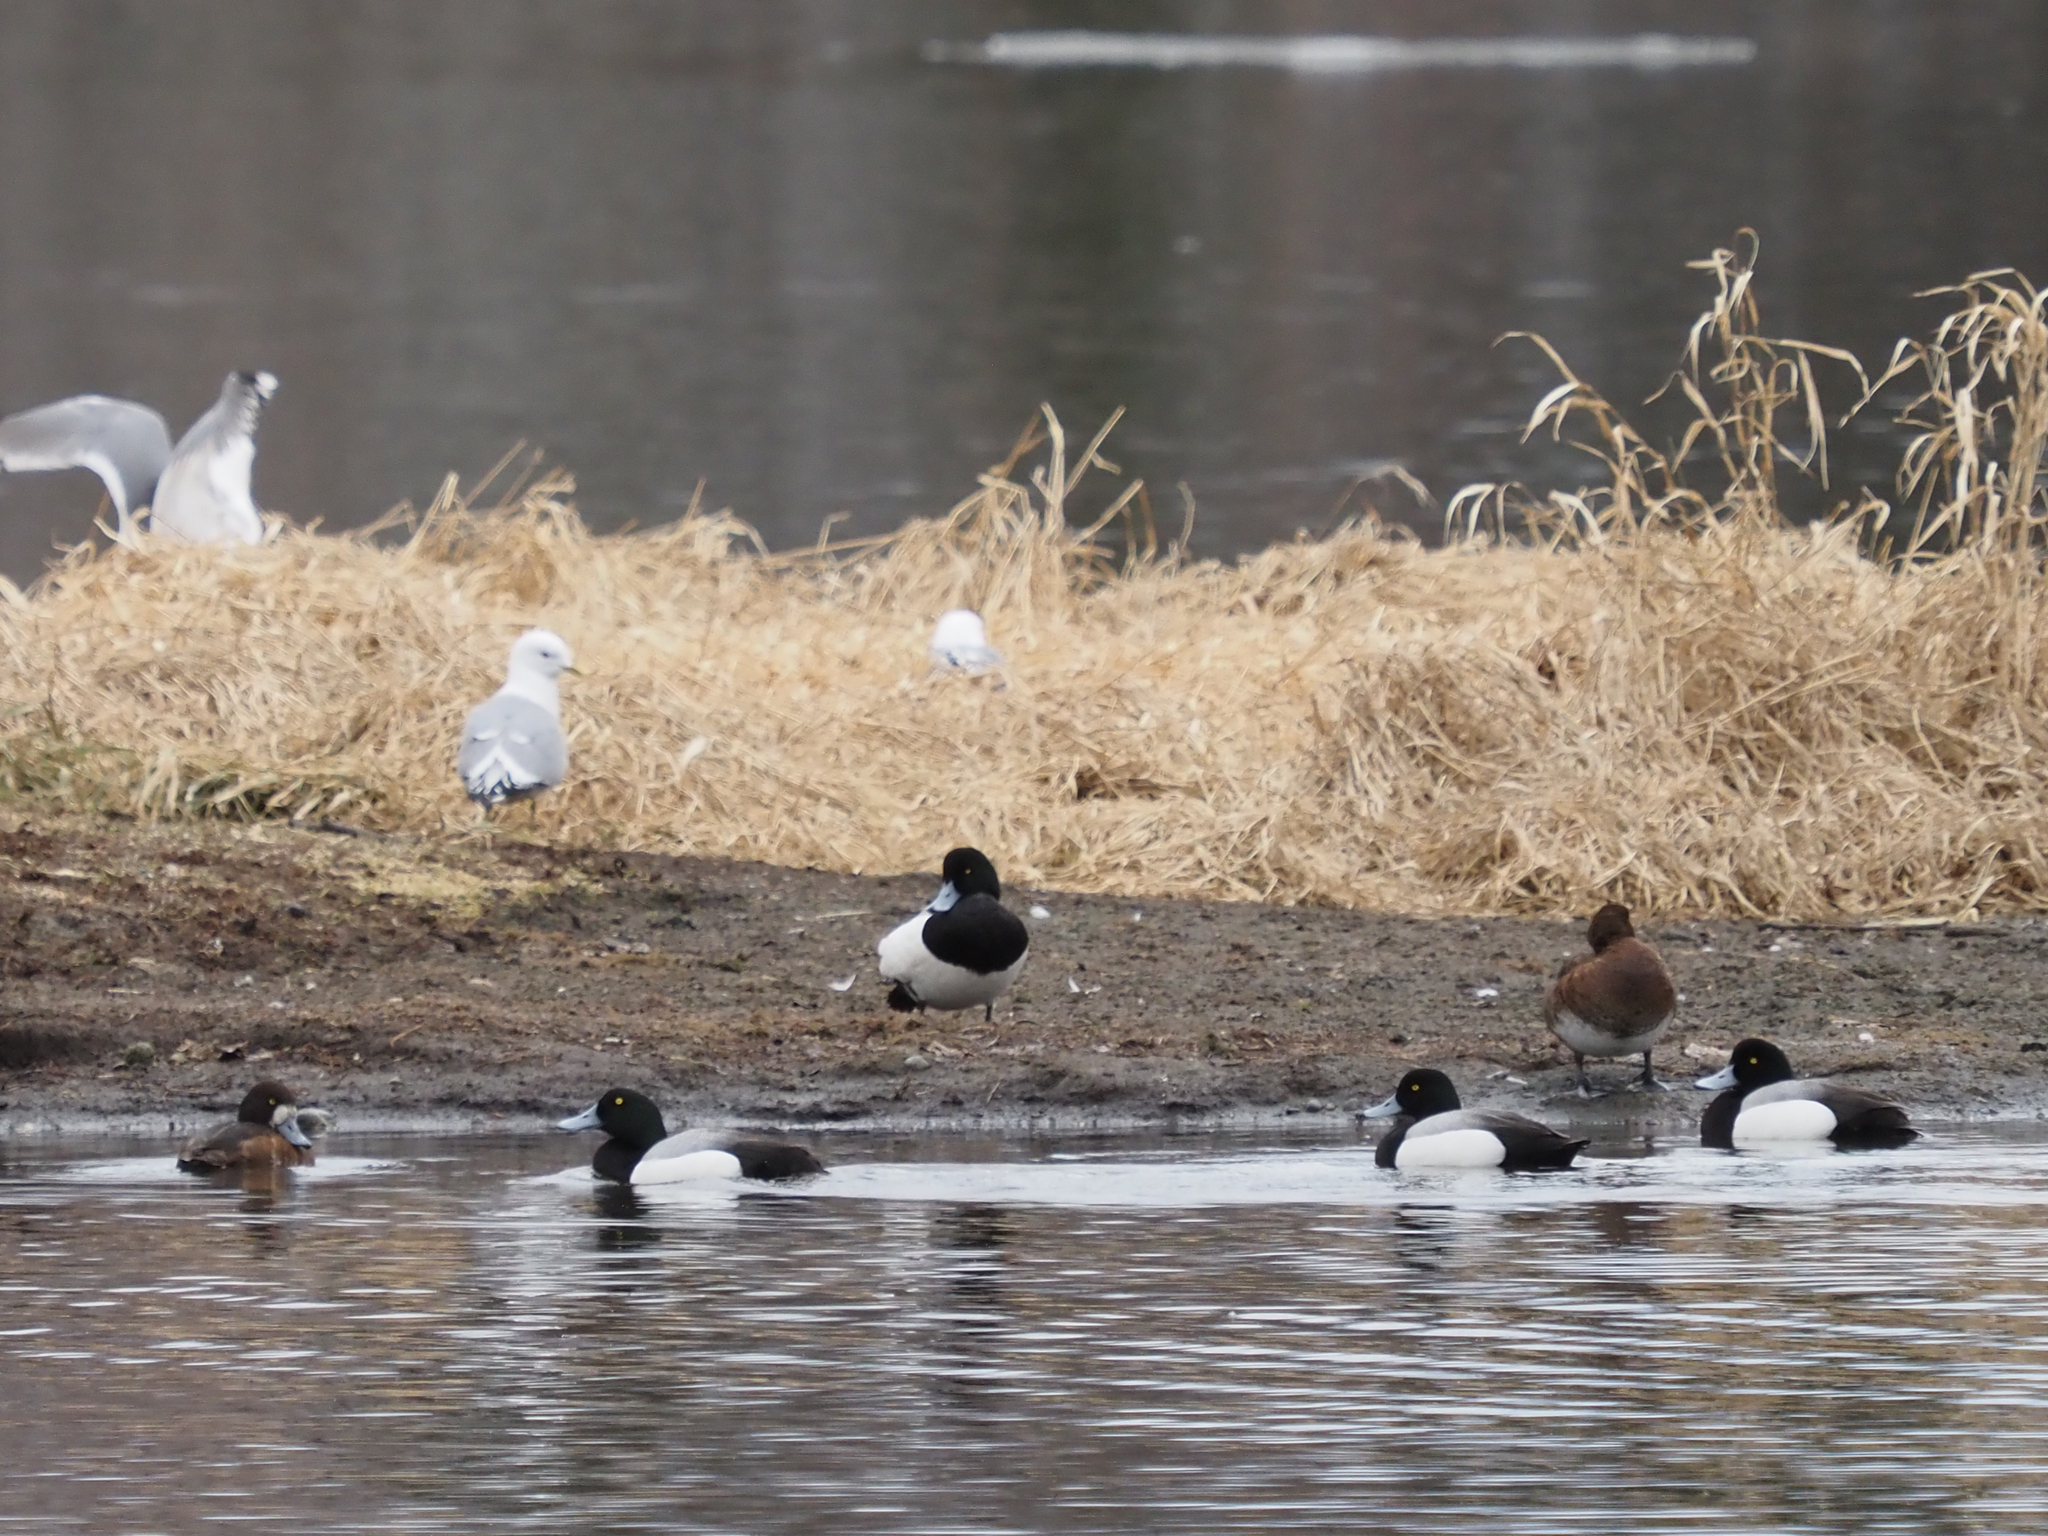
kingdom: Animalia
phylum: Chordata
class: Aves
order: Anseriformes
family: Anatidae
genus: Aythya
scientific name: Aythya marila
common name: Greater scaup
